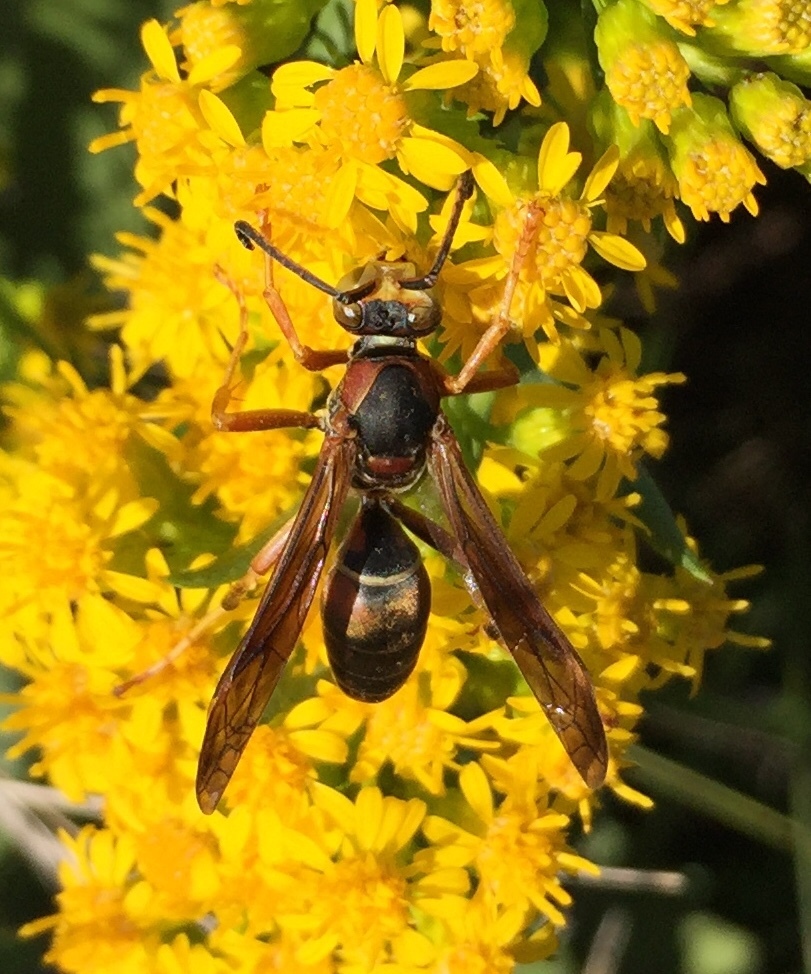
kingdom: Animalia
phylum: Arthropoda
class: Insecta
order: Hymenoptera
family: Eumenidae
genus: Polistes
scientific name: Polistes fuscatus
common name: Dark paper wasp
